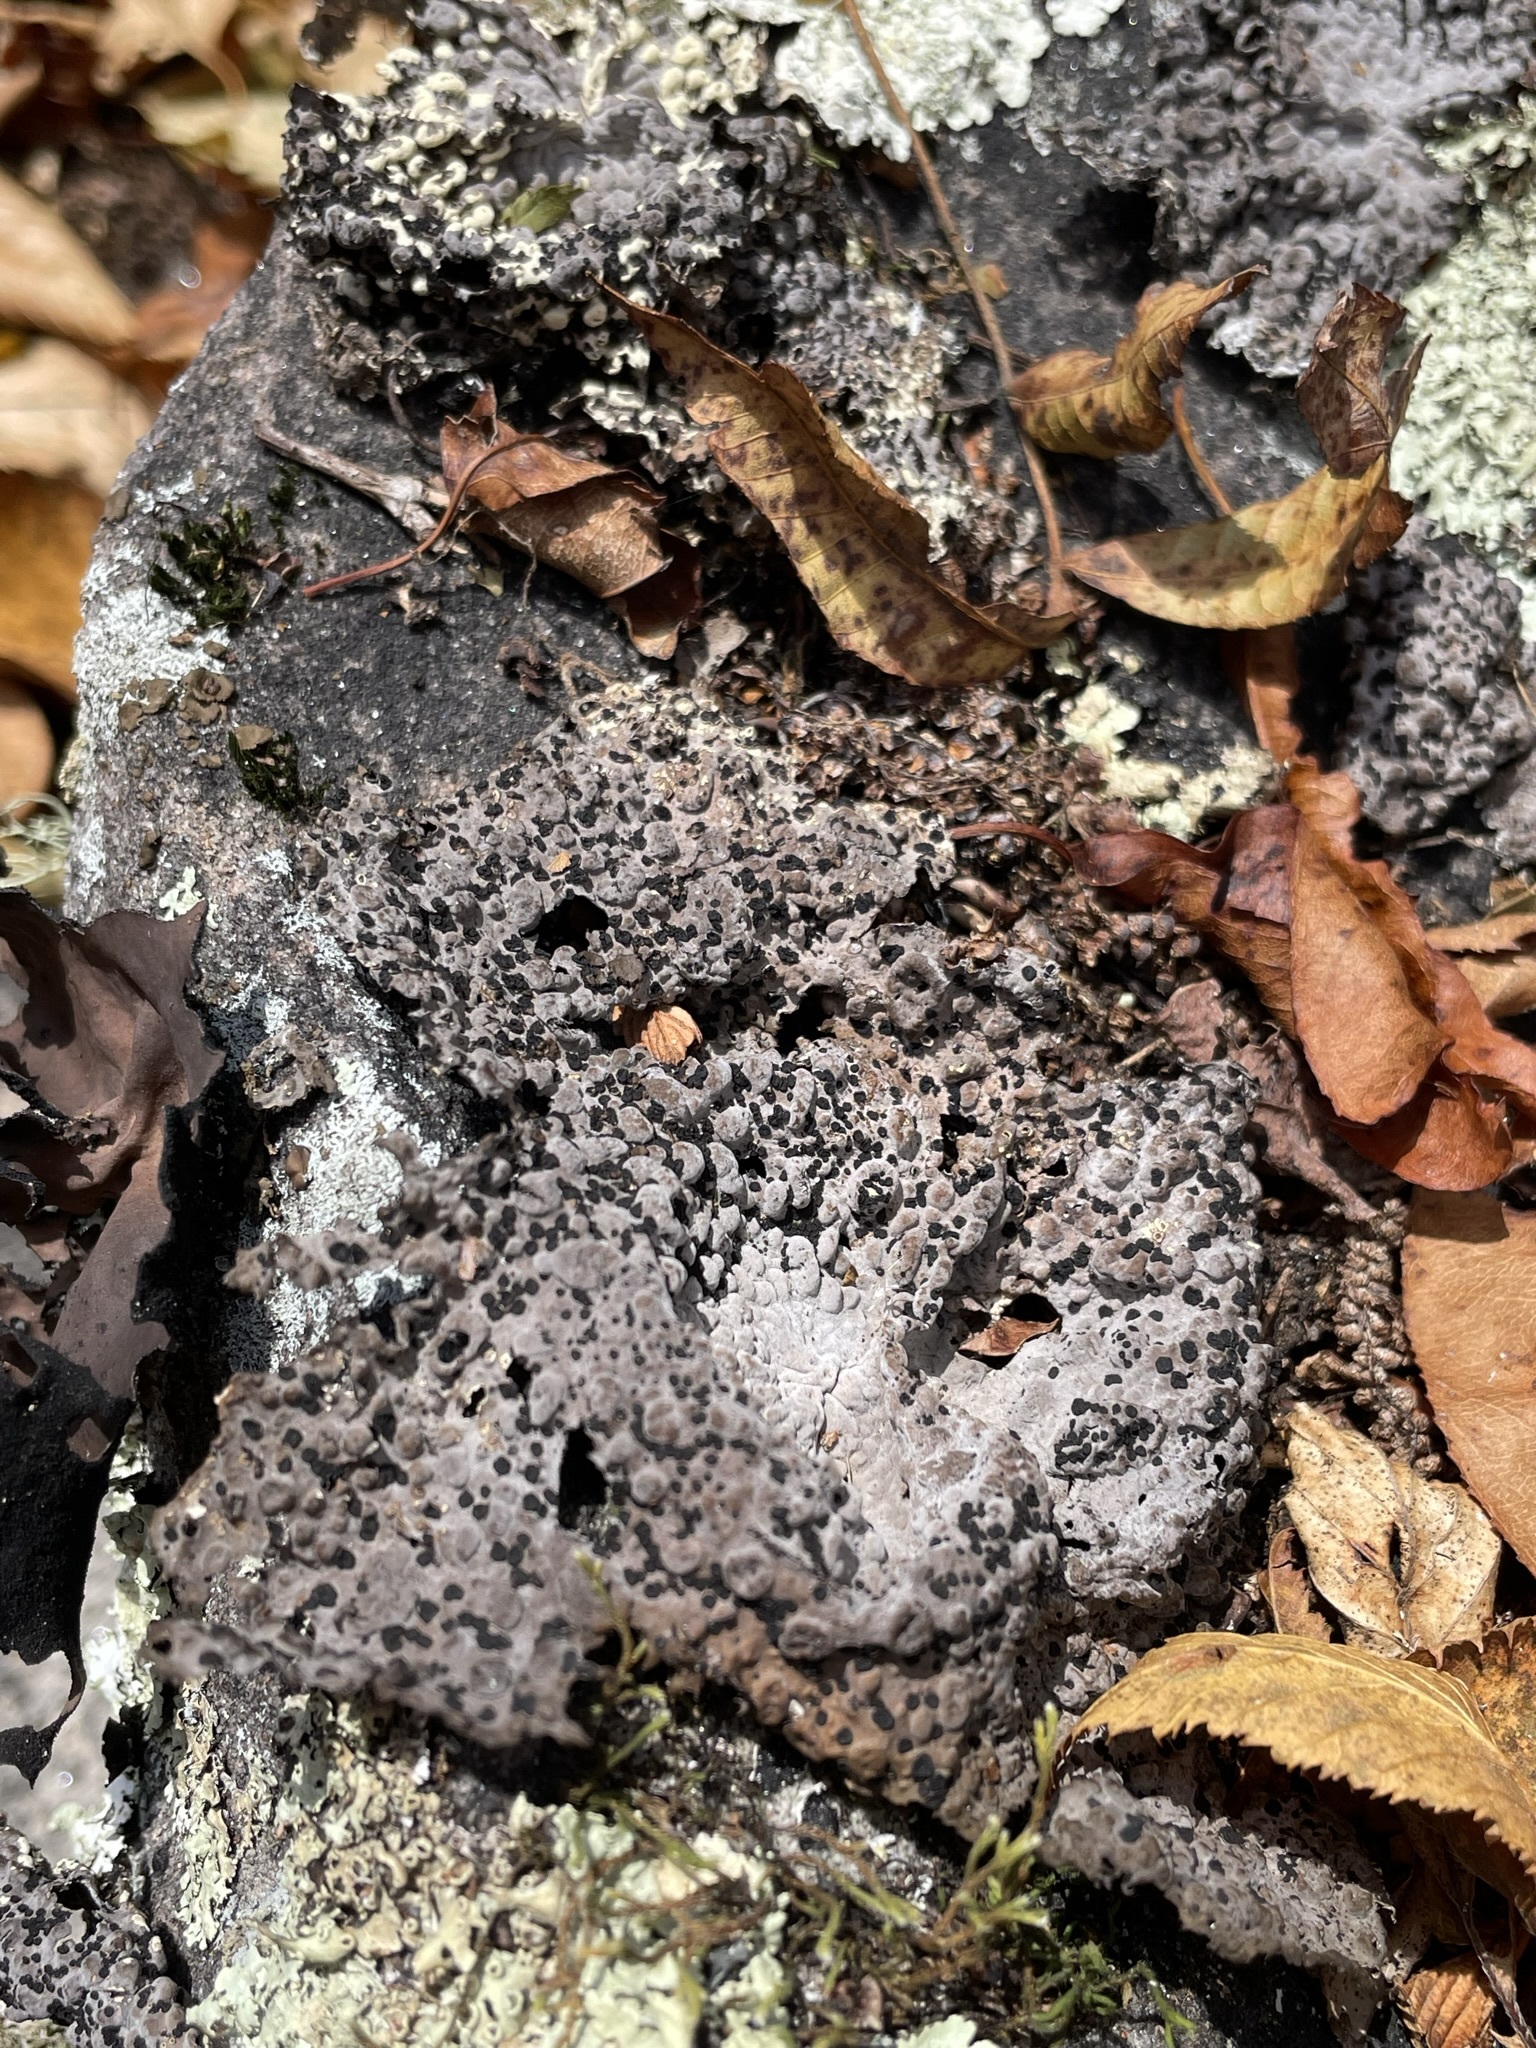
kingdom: Fungi
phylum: Ascomycota
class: Lecanoromycetes
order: Umbilicariales
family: Umbilicariaceae
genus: Lasallia
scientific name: Lasallia papulosa
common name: Common toadskin lichen
